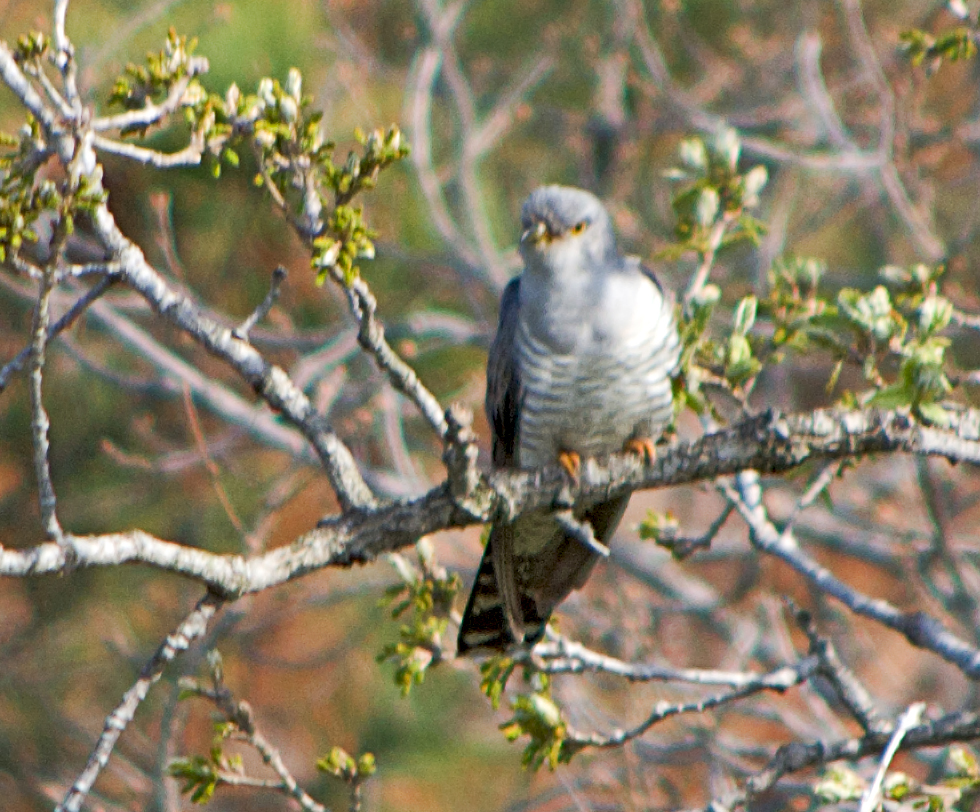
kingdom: Animalia
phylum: Chordata
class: Aves
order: Cuculiformes
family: Cuculidae
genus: Cuculus
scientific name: Cuculus canorus
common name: Common cuckoo
